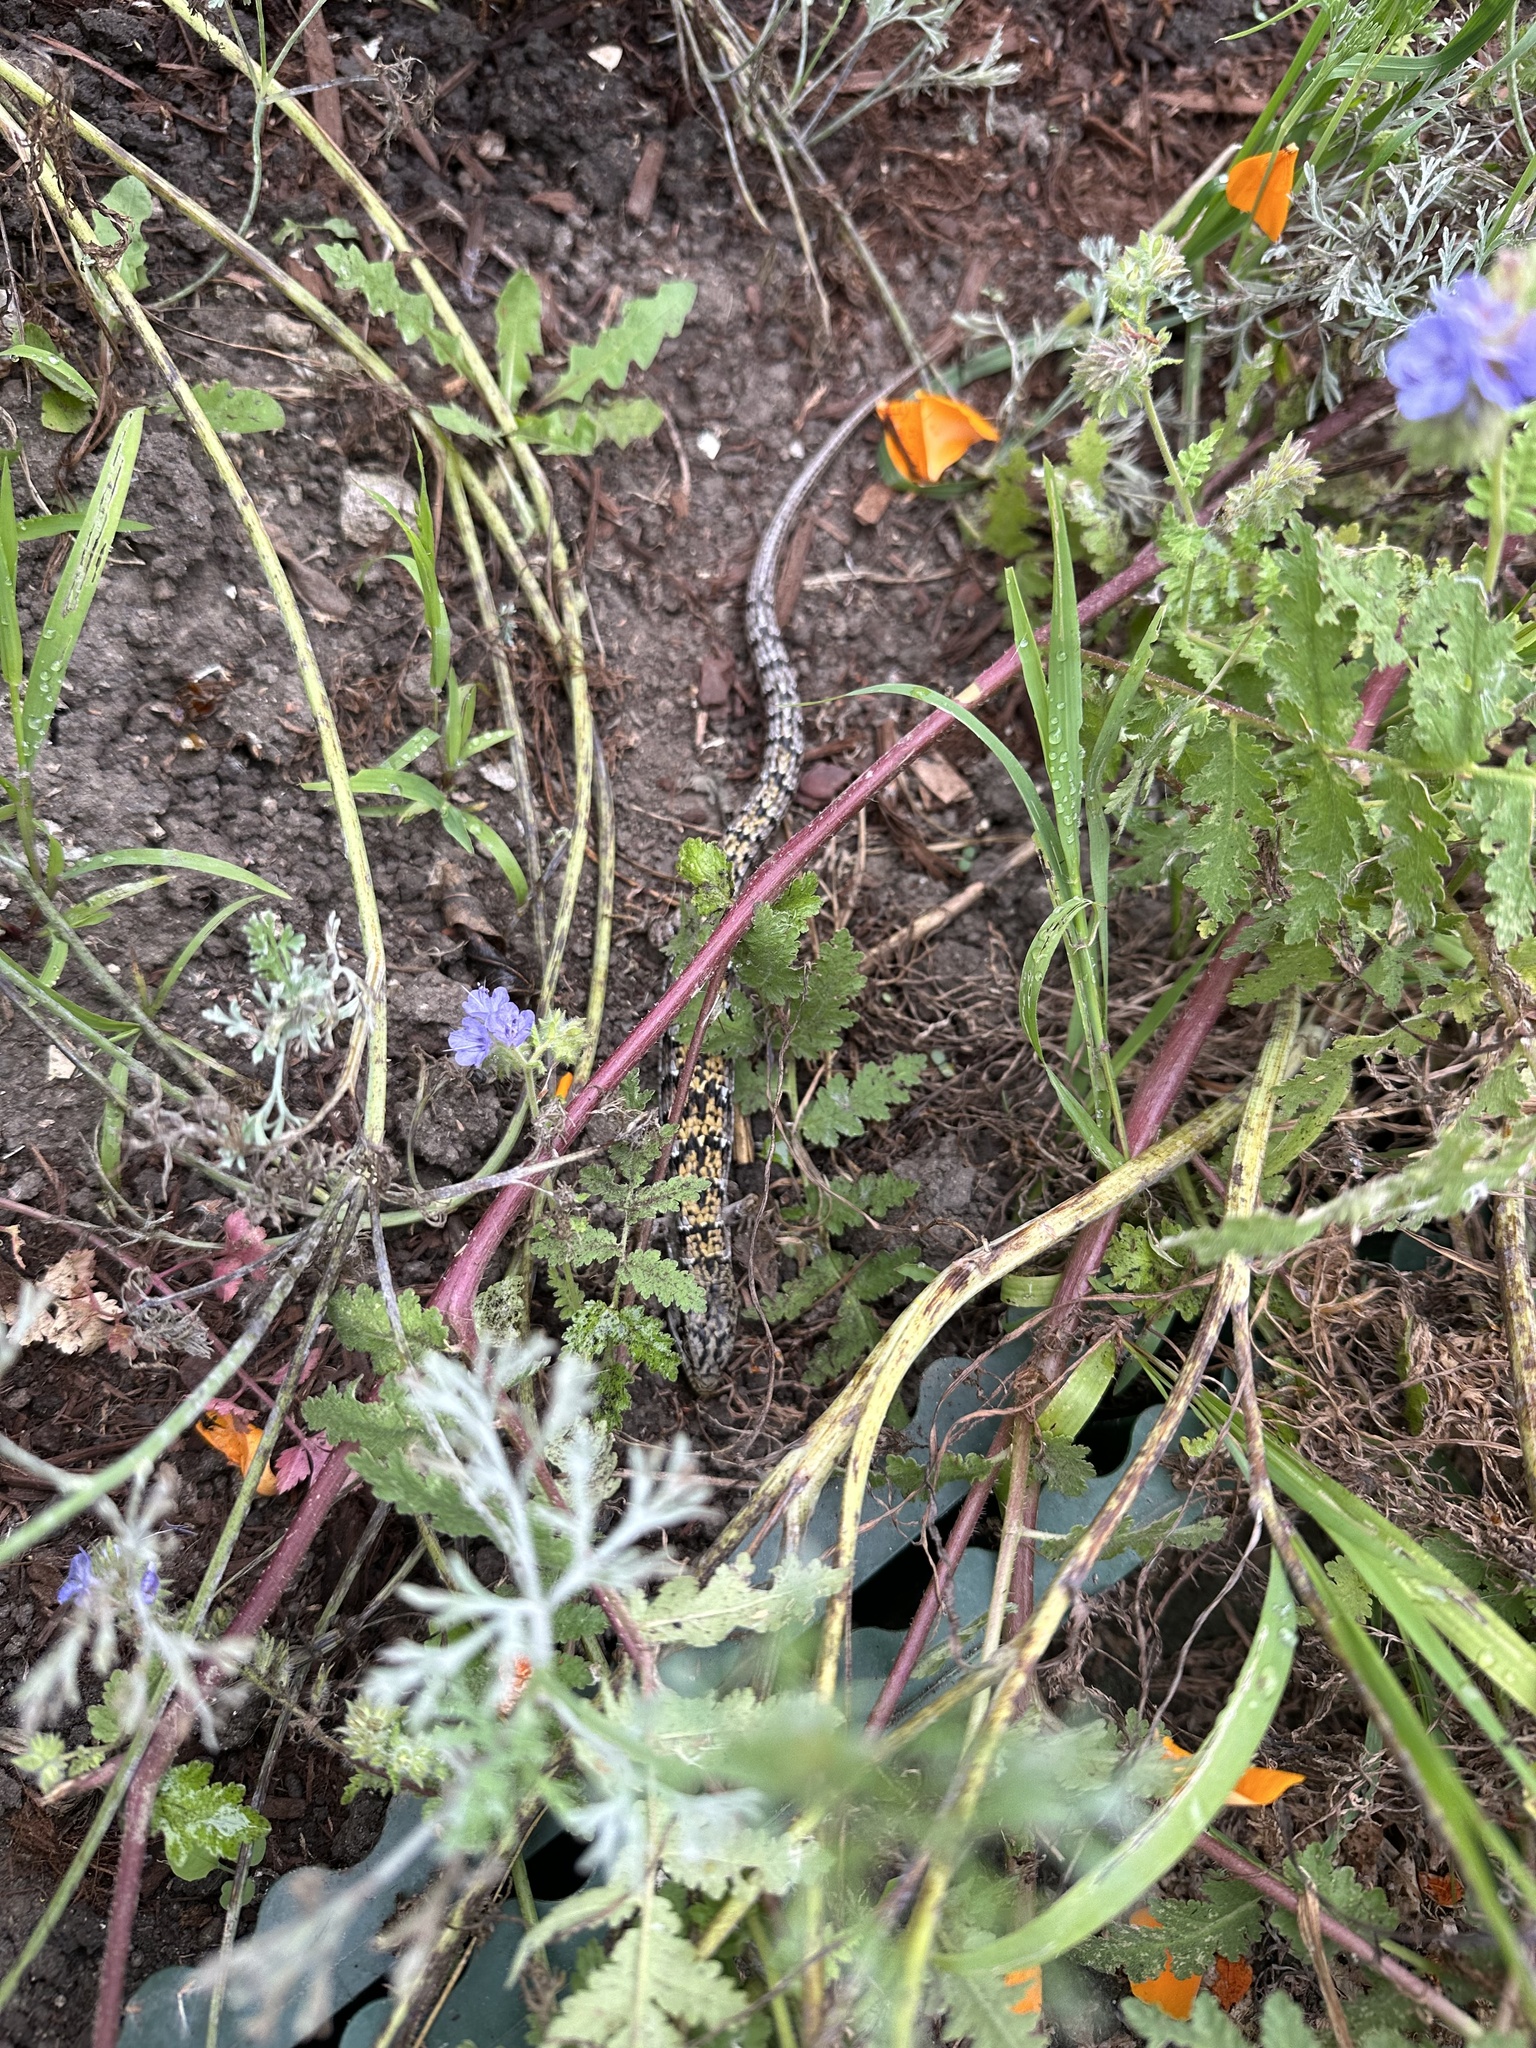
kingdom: Animalia
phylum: Chordata
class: Squamata
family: Anguidae
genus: Elgaria
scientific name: Elgaria multicarinata
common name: Southern alligator lizard
